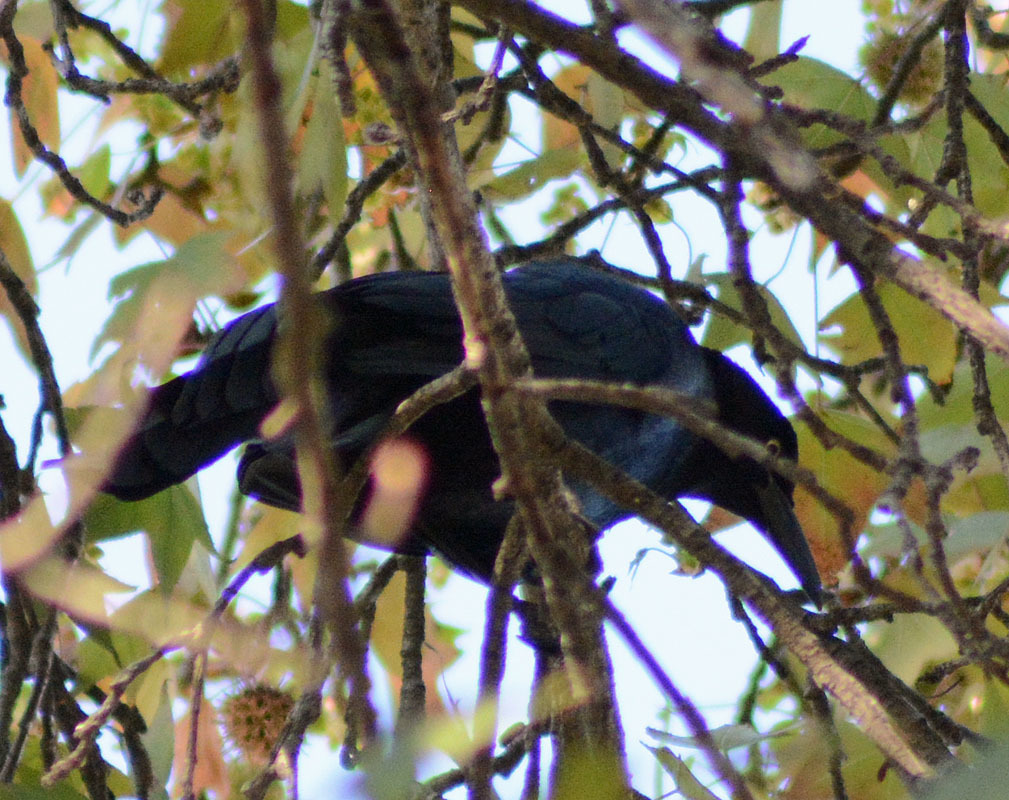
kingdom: Animalia
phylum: Chordata
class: Aves
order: Passeriformes
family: Icteridae
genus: Quiscalus
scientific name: Quiscalus mexicanus
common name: Great-tailed grackle
